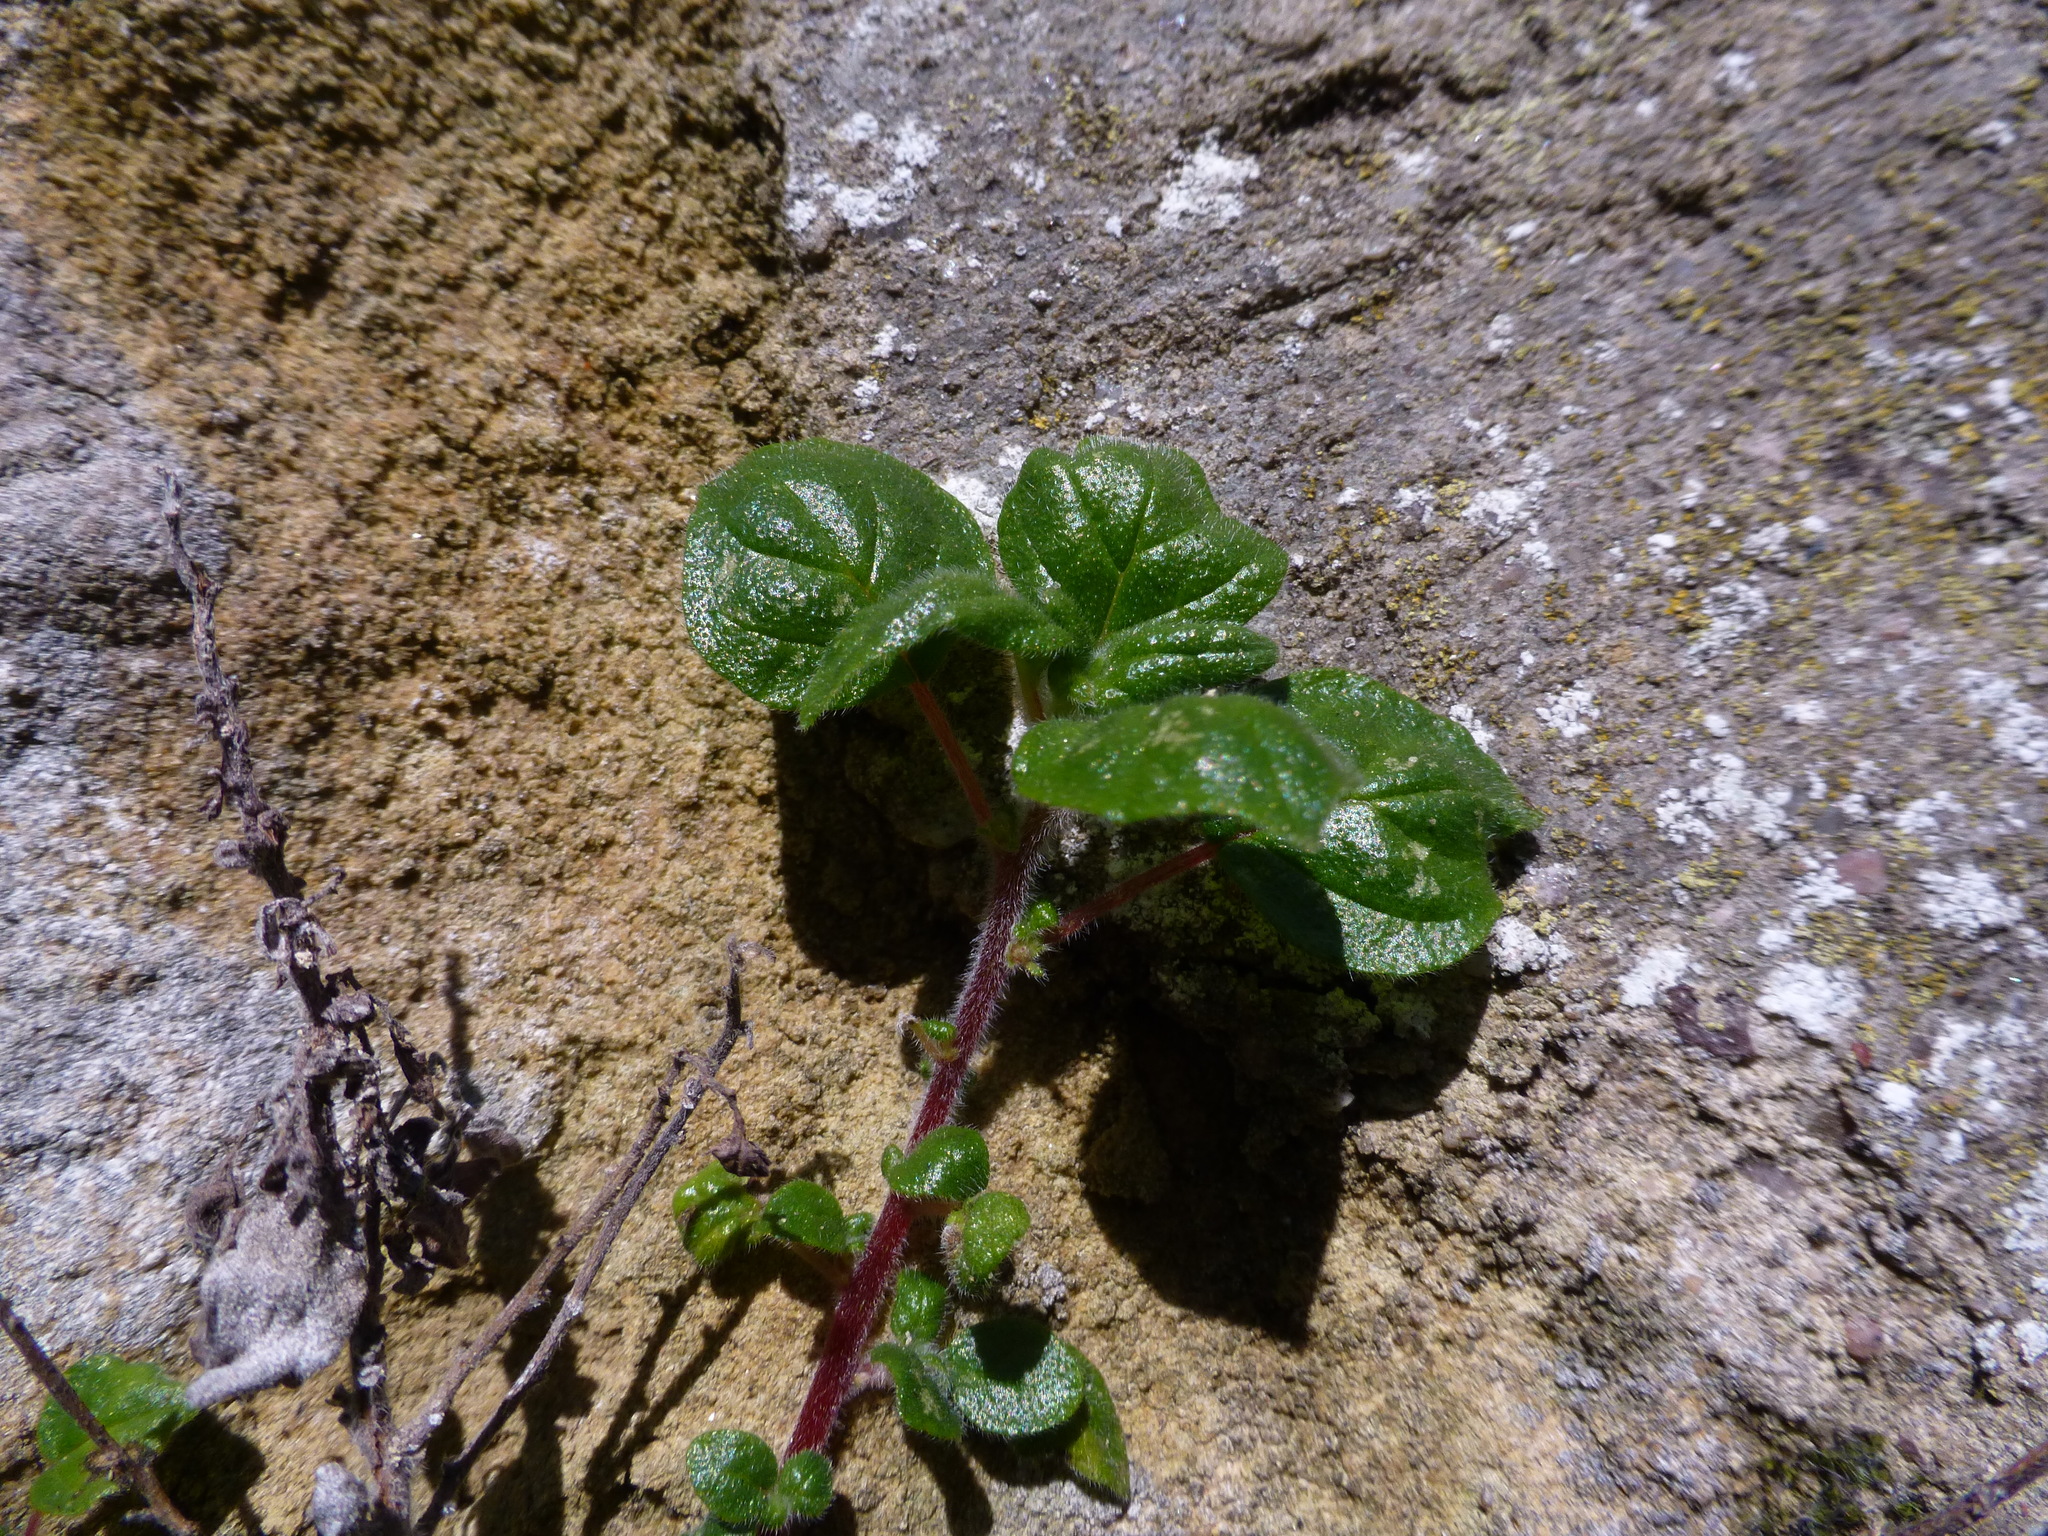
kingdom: Plantae
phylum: Tracheophyta
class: Magnoliopsida
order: Rosales
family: Urticaceae
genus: Parietaria
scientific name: Parietaria judaica
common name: Pellitory-of-the-wall
